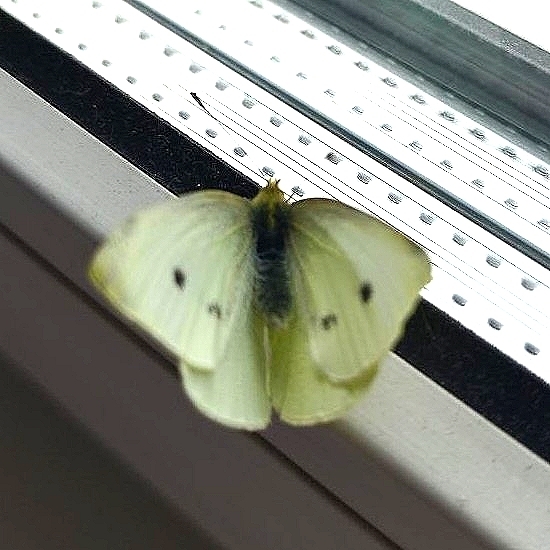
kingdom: Animalia
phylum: Arthropoda
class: Insecta
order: Lepidoptera
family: Pieridae
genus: Pieris
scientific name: Pieris rapae
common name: Small white
